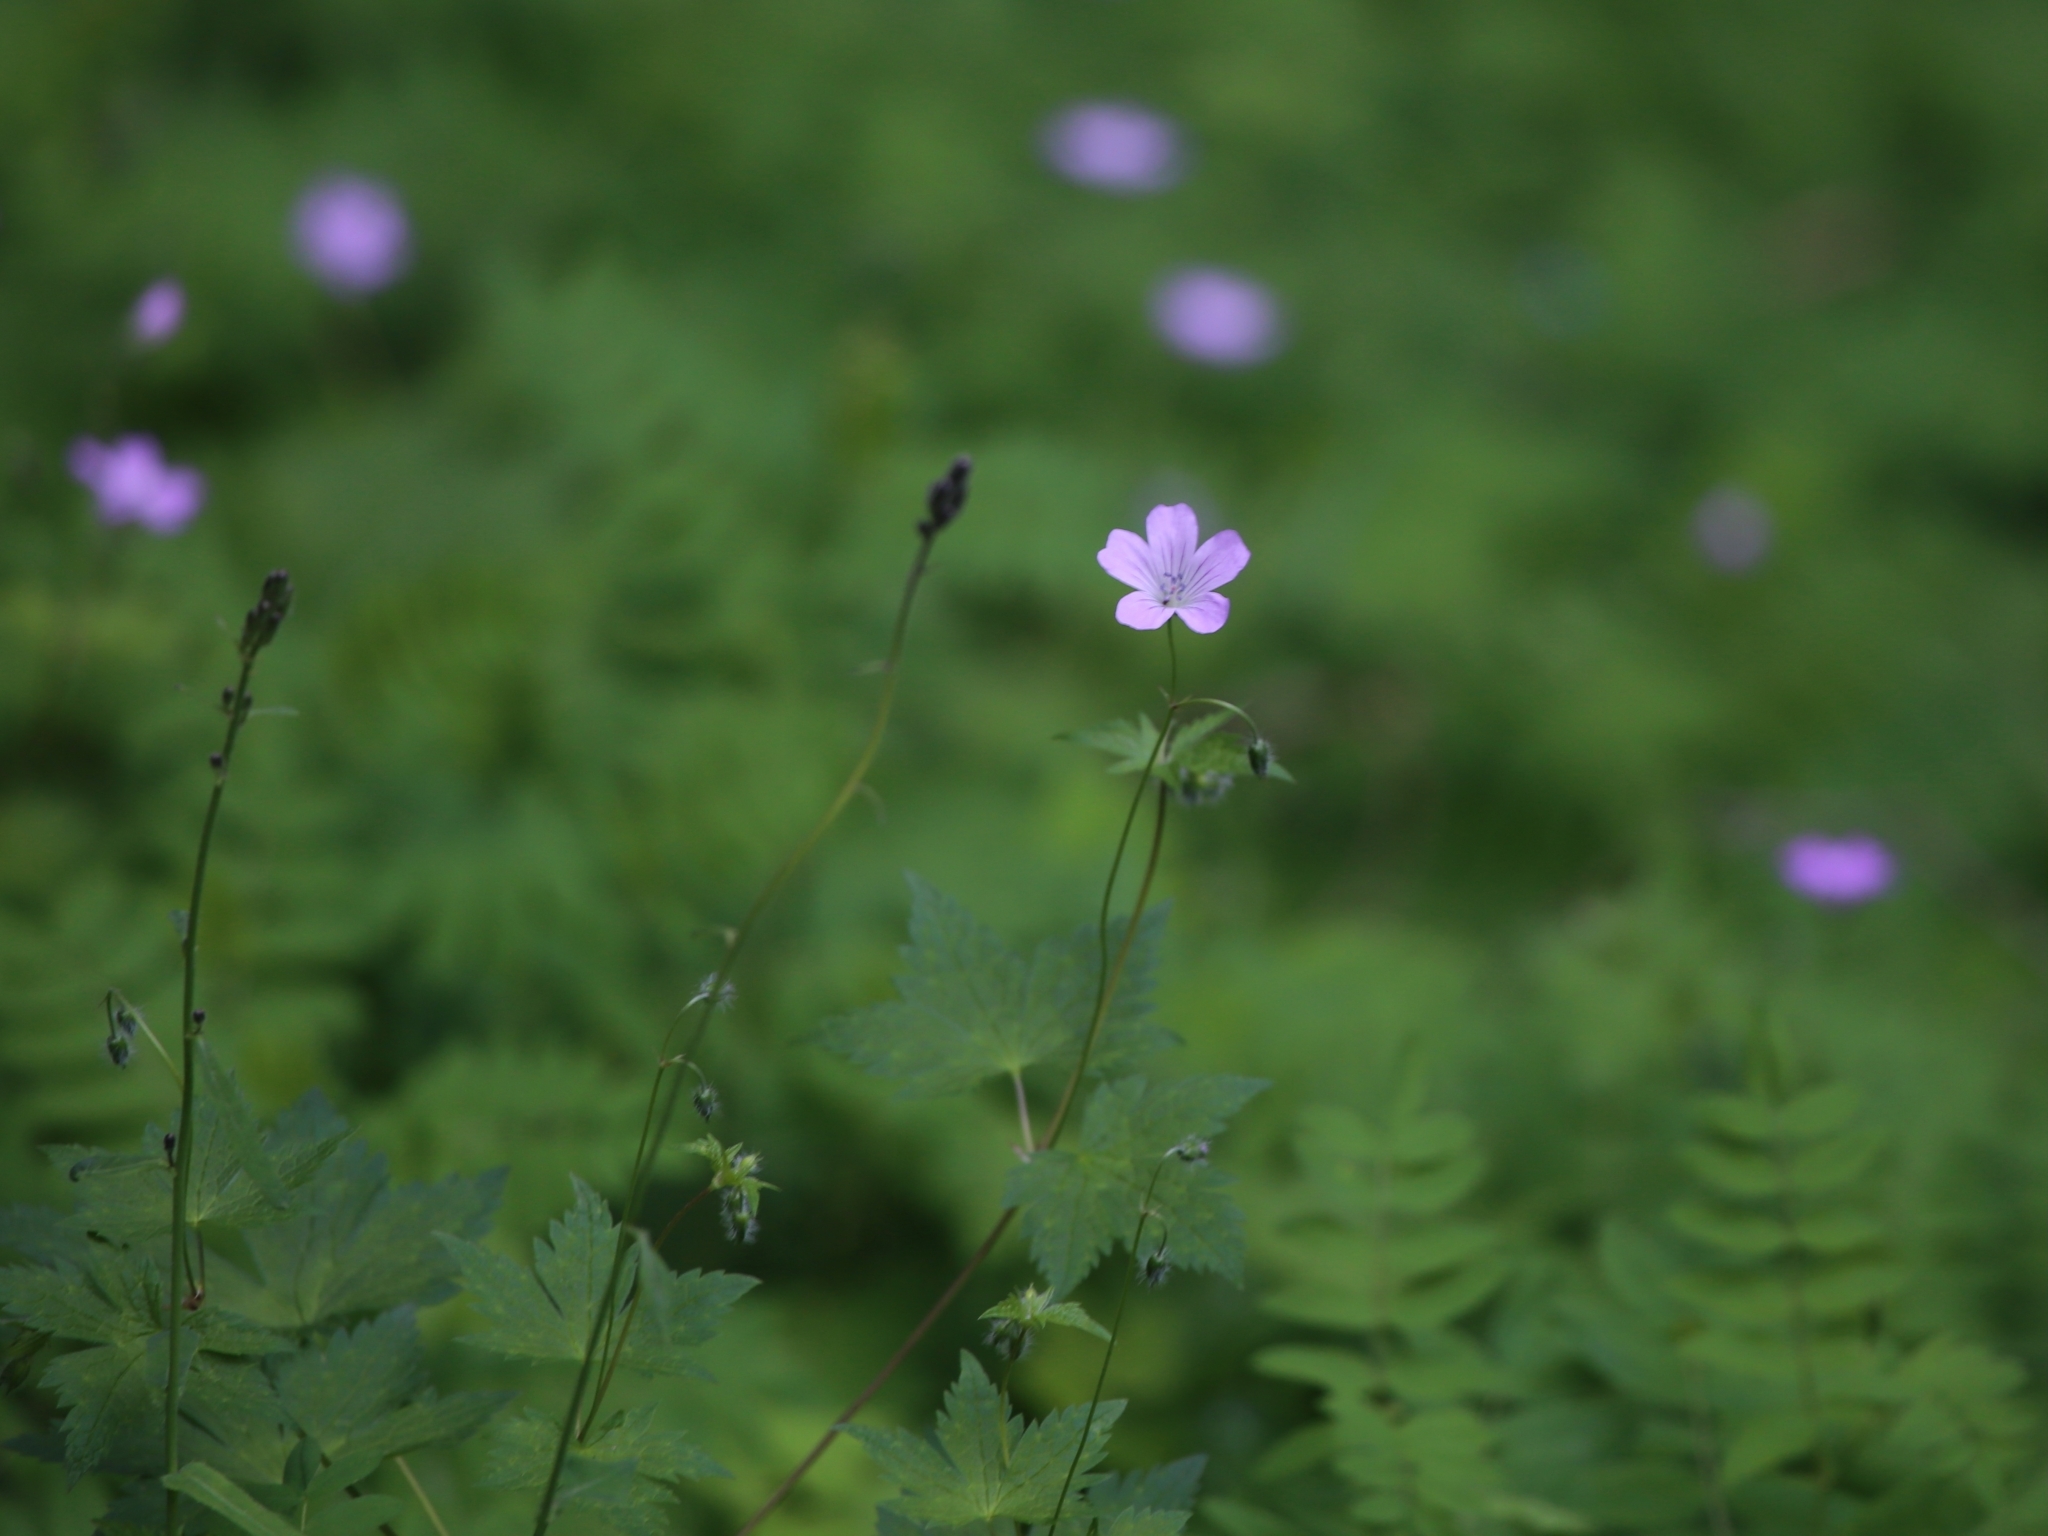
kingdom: Plantae
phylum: Tracheophyta
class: Magnoliopsida
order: Geraniales
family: Geraniaceae
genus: Geranium
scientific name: Geranium rectum
